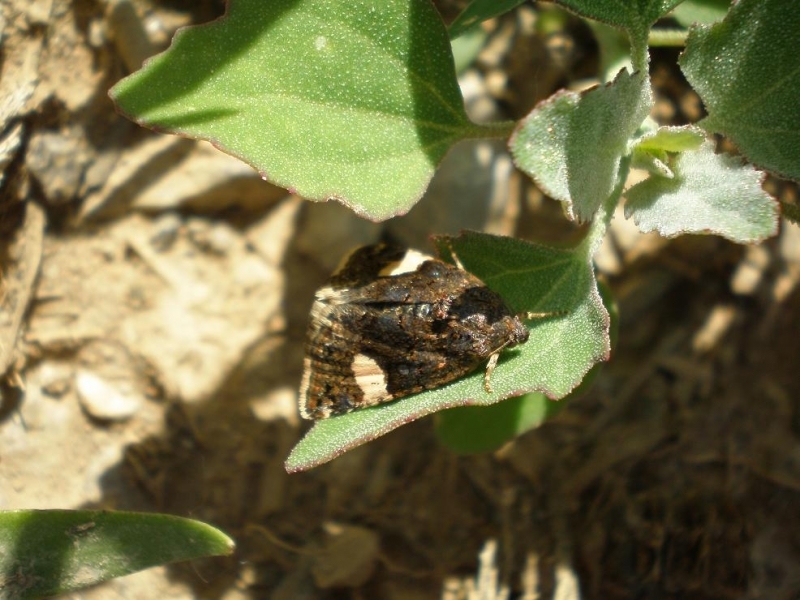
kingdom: Animalia
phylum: Arthropoda
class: Insecta
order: Lepidoptera
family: Erebidae
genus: Tyta
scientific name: Tyta luctuosa
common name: Four-spotted
